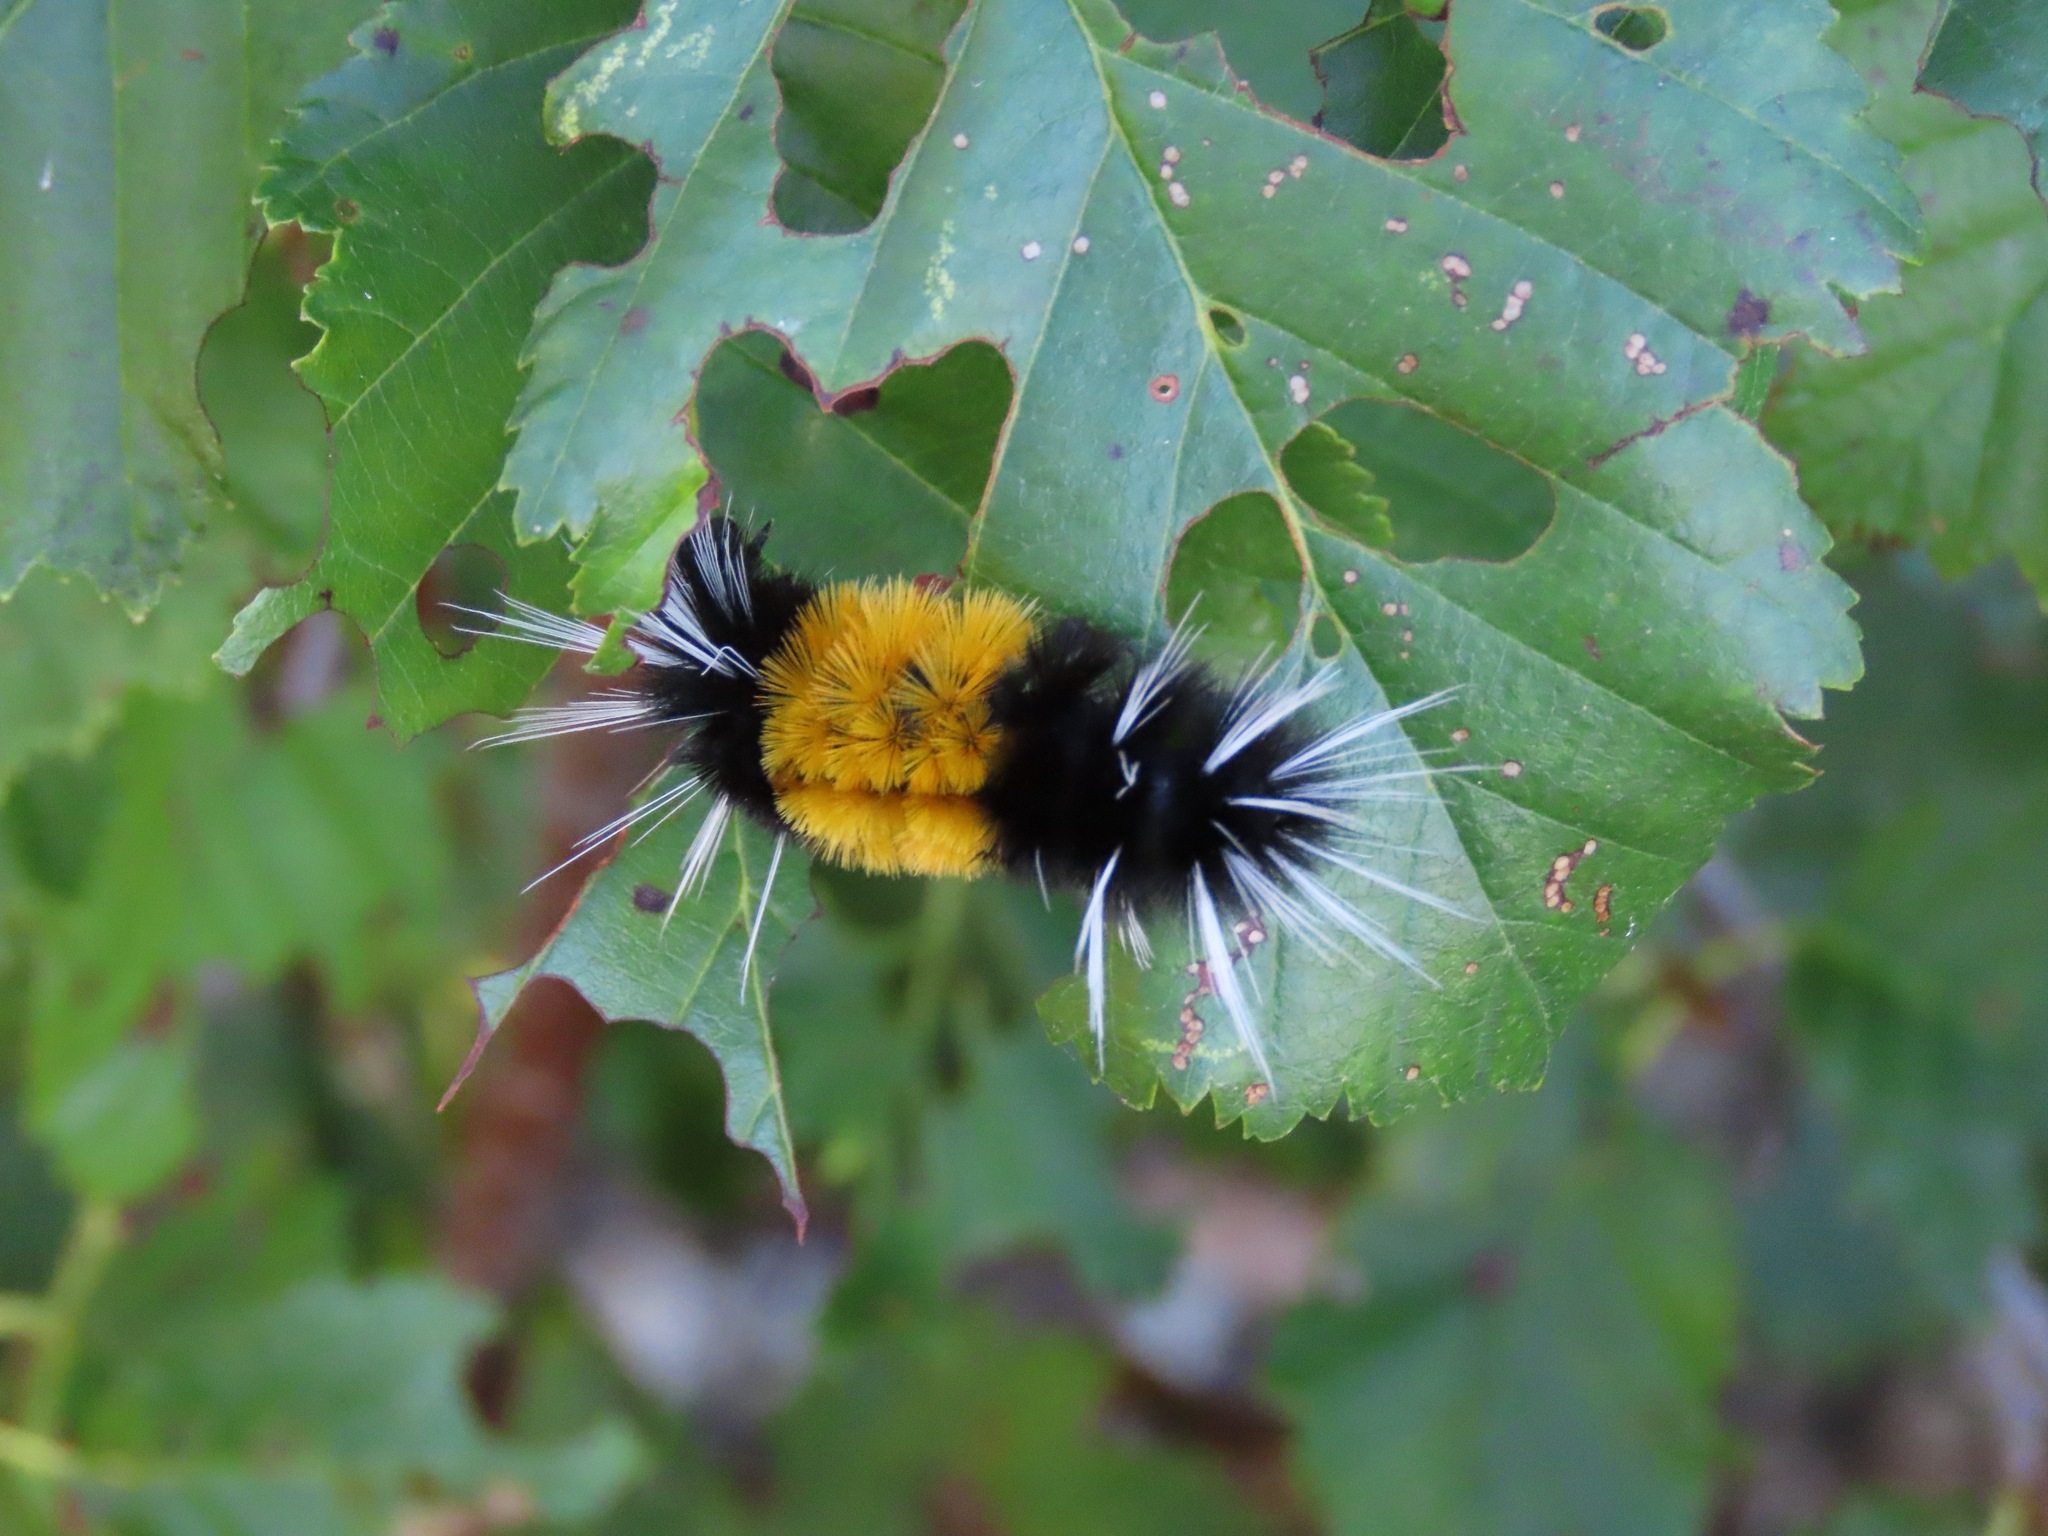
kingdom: Animalia
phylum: Arthropoda
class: Insecta
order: Lepidoptera
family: Erebidae
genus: Lophocampa
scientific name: Lophocampa maculata
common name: Spotted tussock moth
